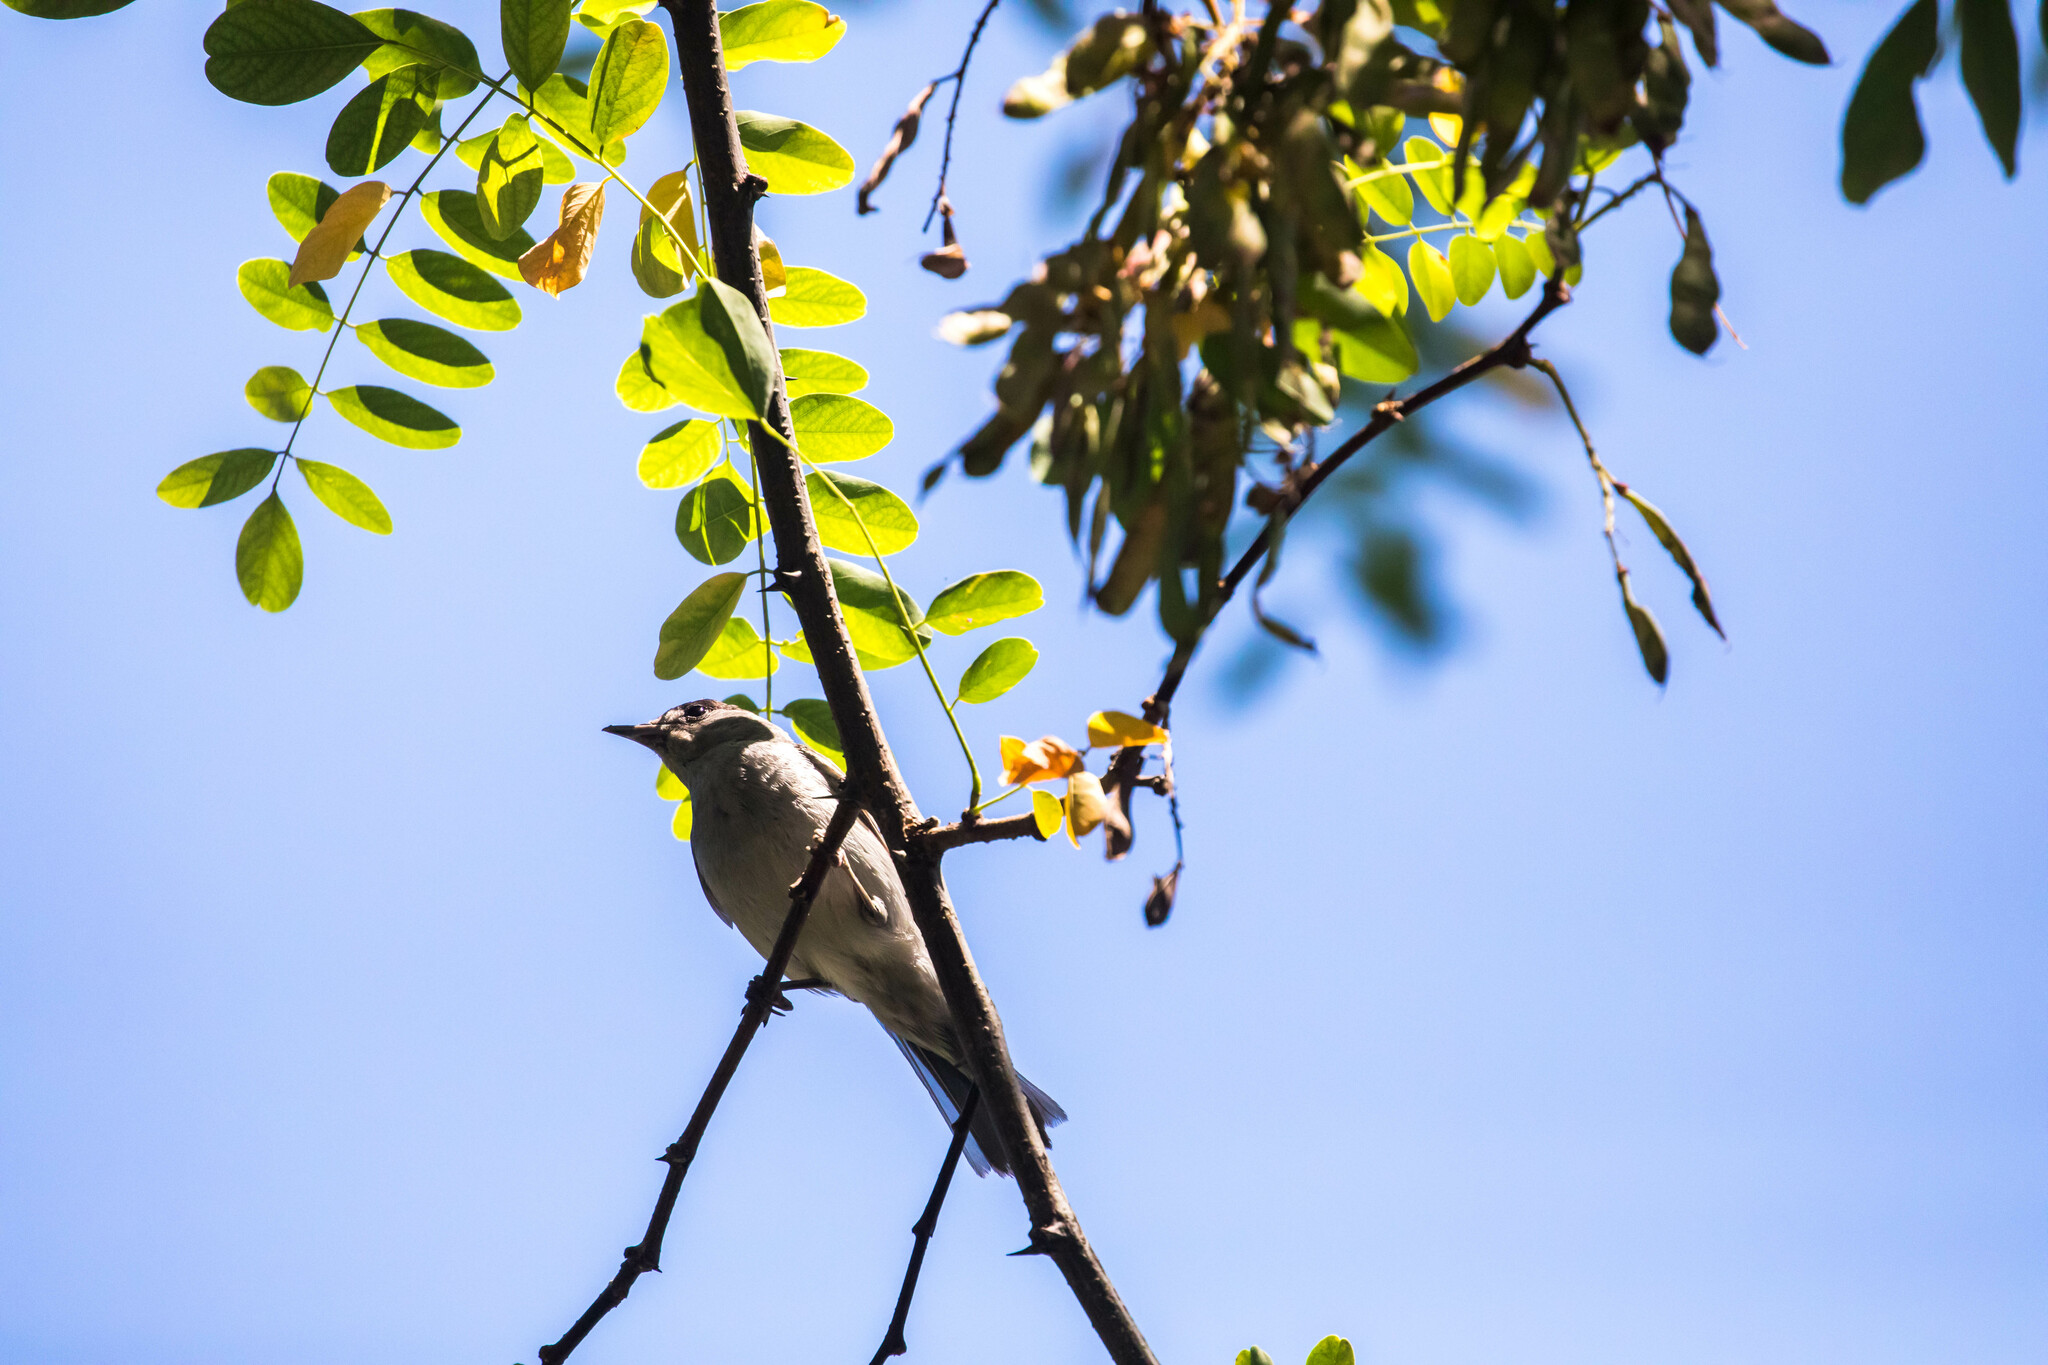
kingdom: Animalia
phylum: Chordata
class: Aves
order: Passeriformes
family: Sylviidae
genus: Sylvia
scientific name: Sylvia atricapilla
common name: Eurasian blackcap
